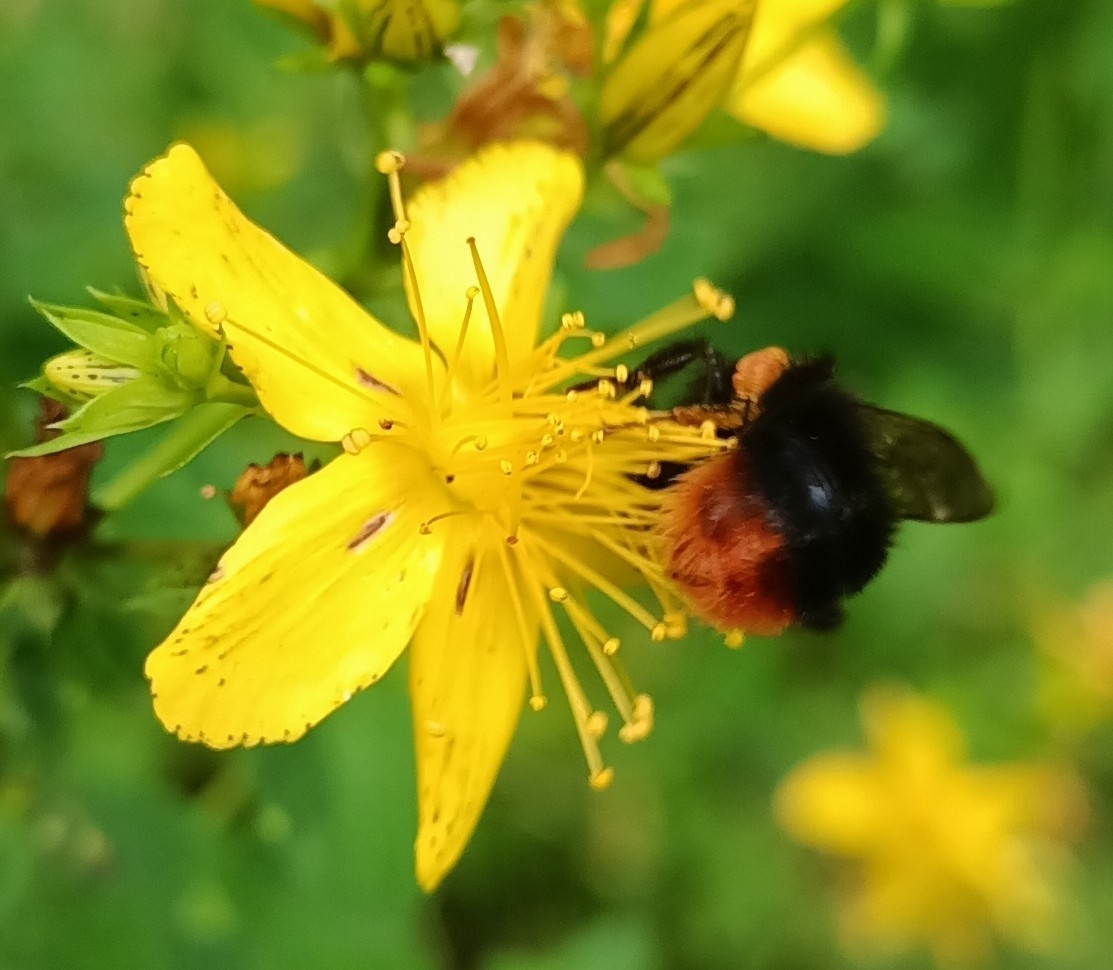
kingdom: Animalia
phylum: Arthropoda
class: Insecta
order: Hymenoptera
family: Apidae
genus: Bombus
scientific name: Bombus lapidarius
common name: Large red-tailed humble-bee
